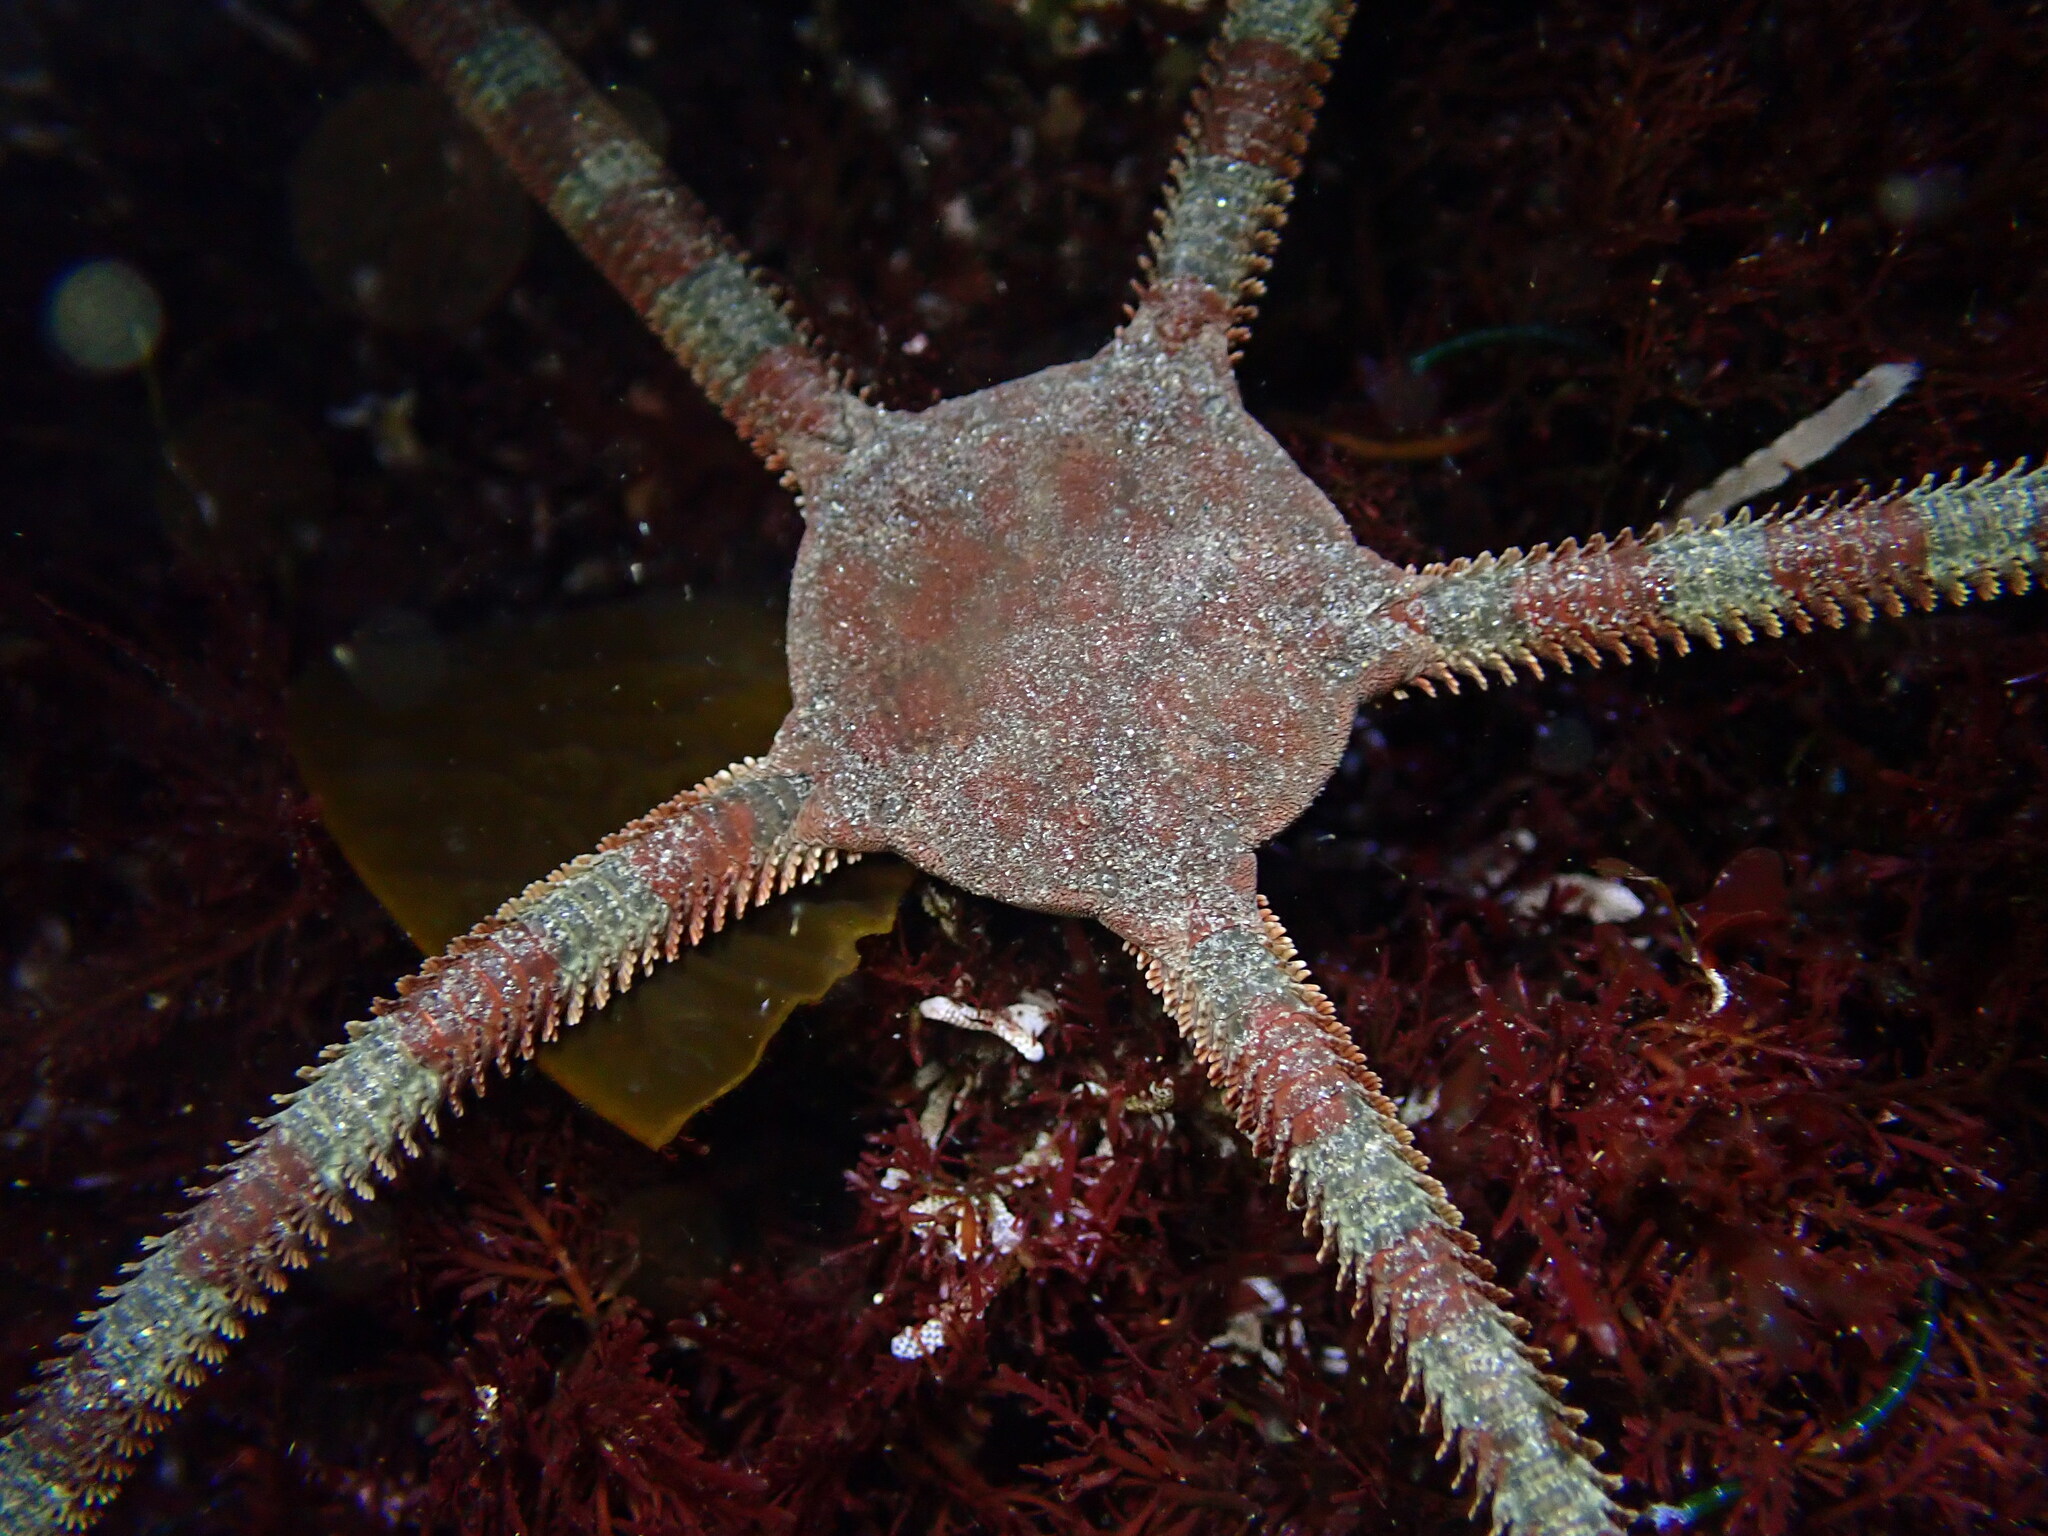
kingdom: Animalia
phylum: Echinodermata
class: Ophiuroidea
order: Ophiacanthida
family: Ophiodermatidae
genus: Ophioderma
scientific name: Ophioderma panamense
